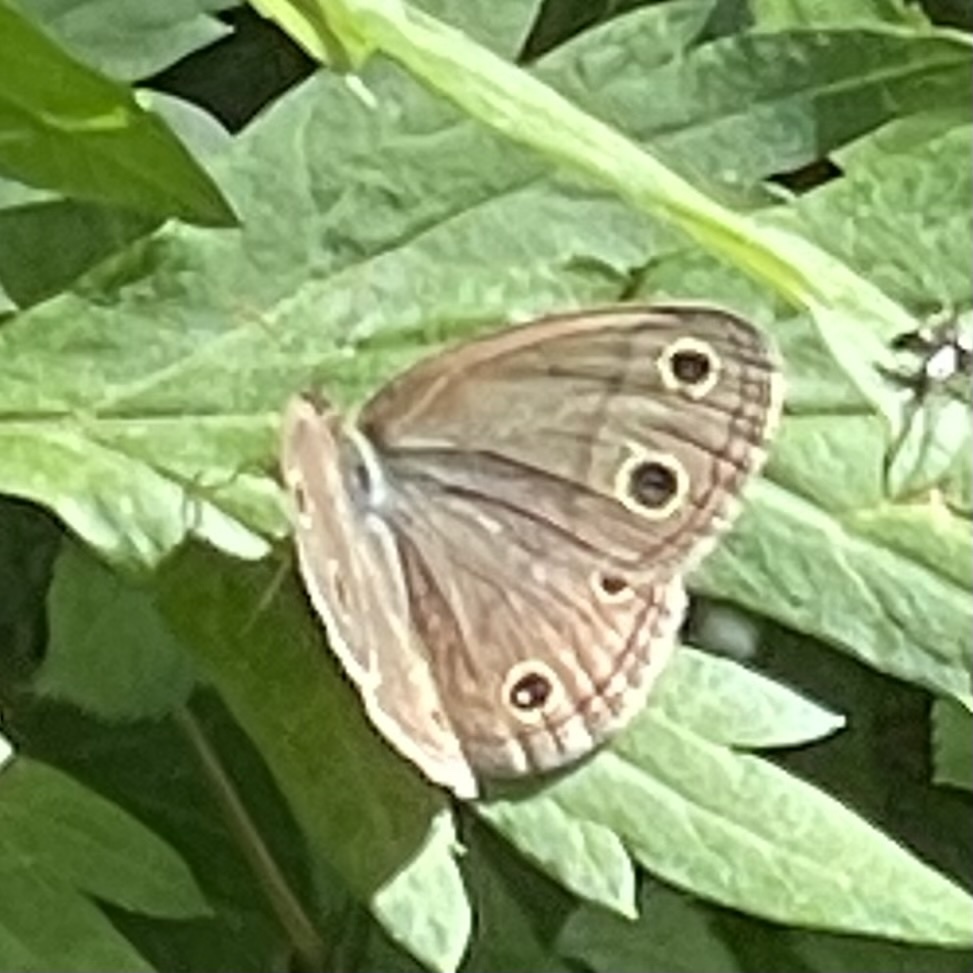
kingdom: Animalia
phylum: Arthropoda
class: Insecta
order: Lepidoptera
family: Nymphalidae
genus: Euptychia
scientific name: Euptychia cymela
